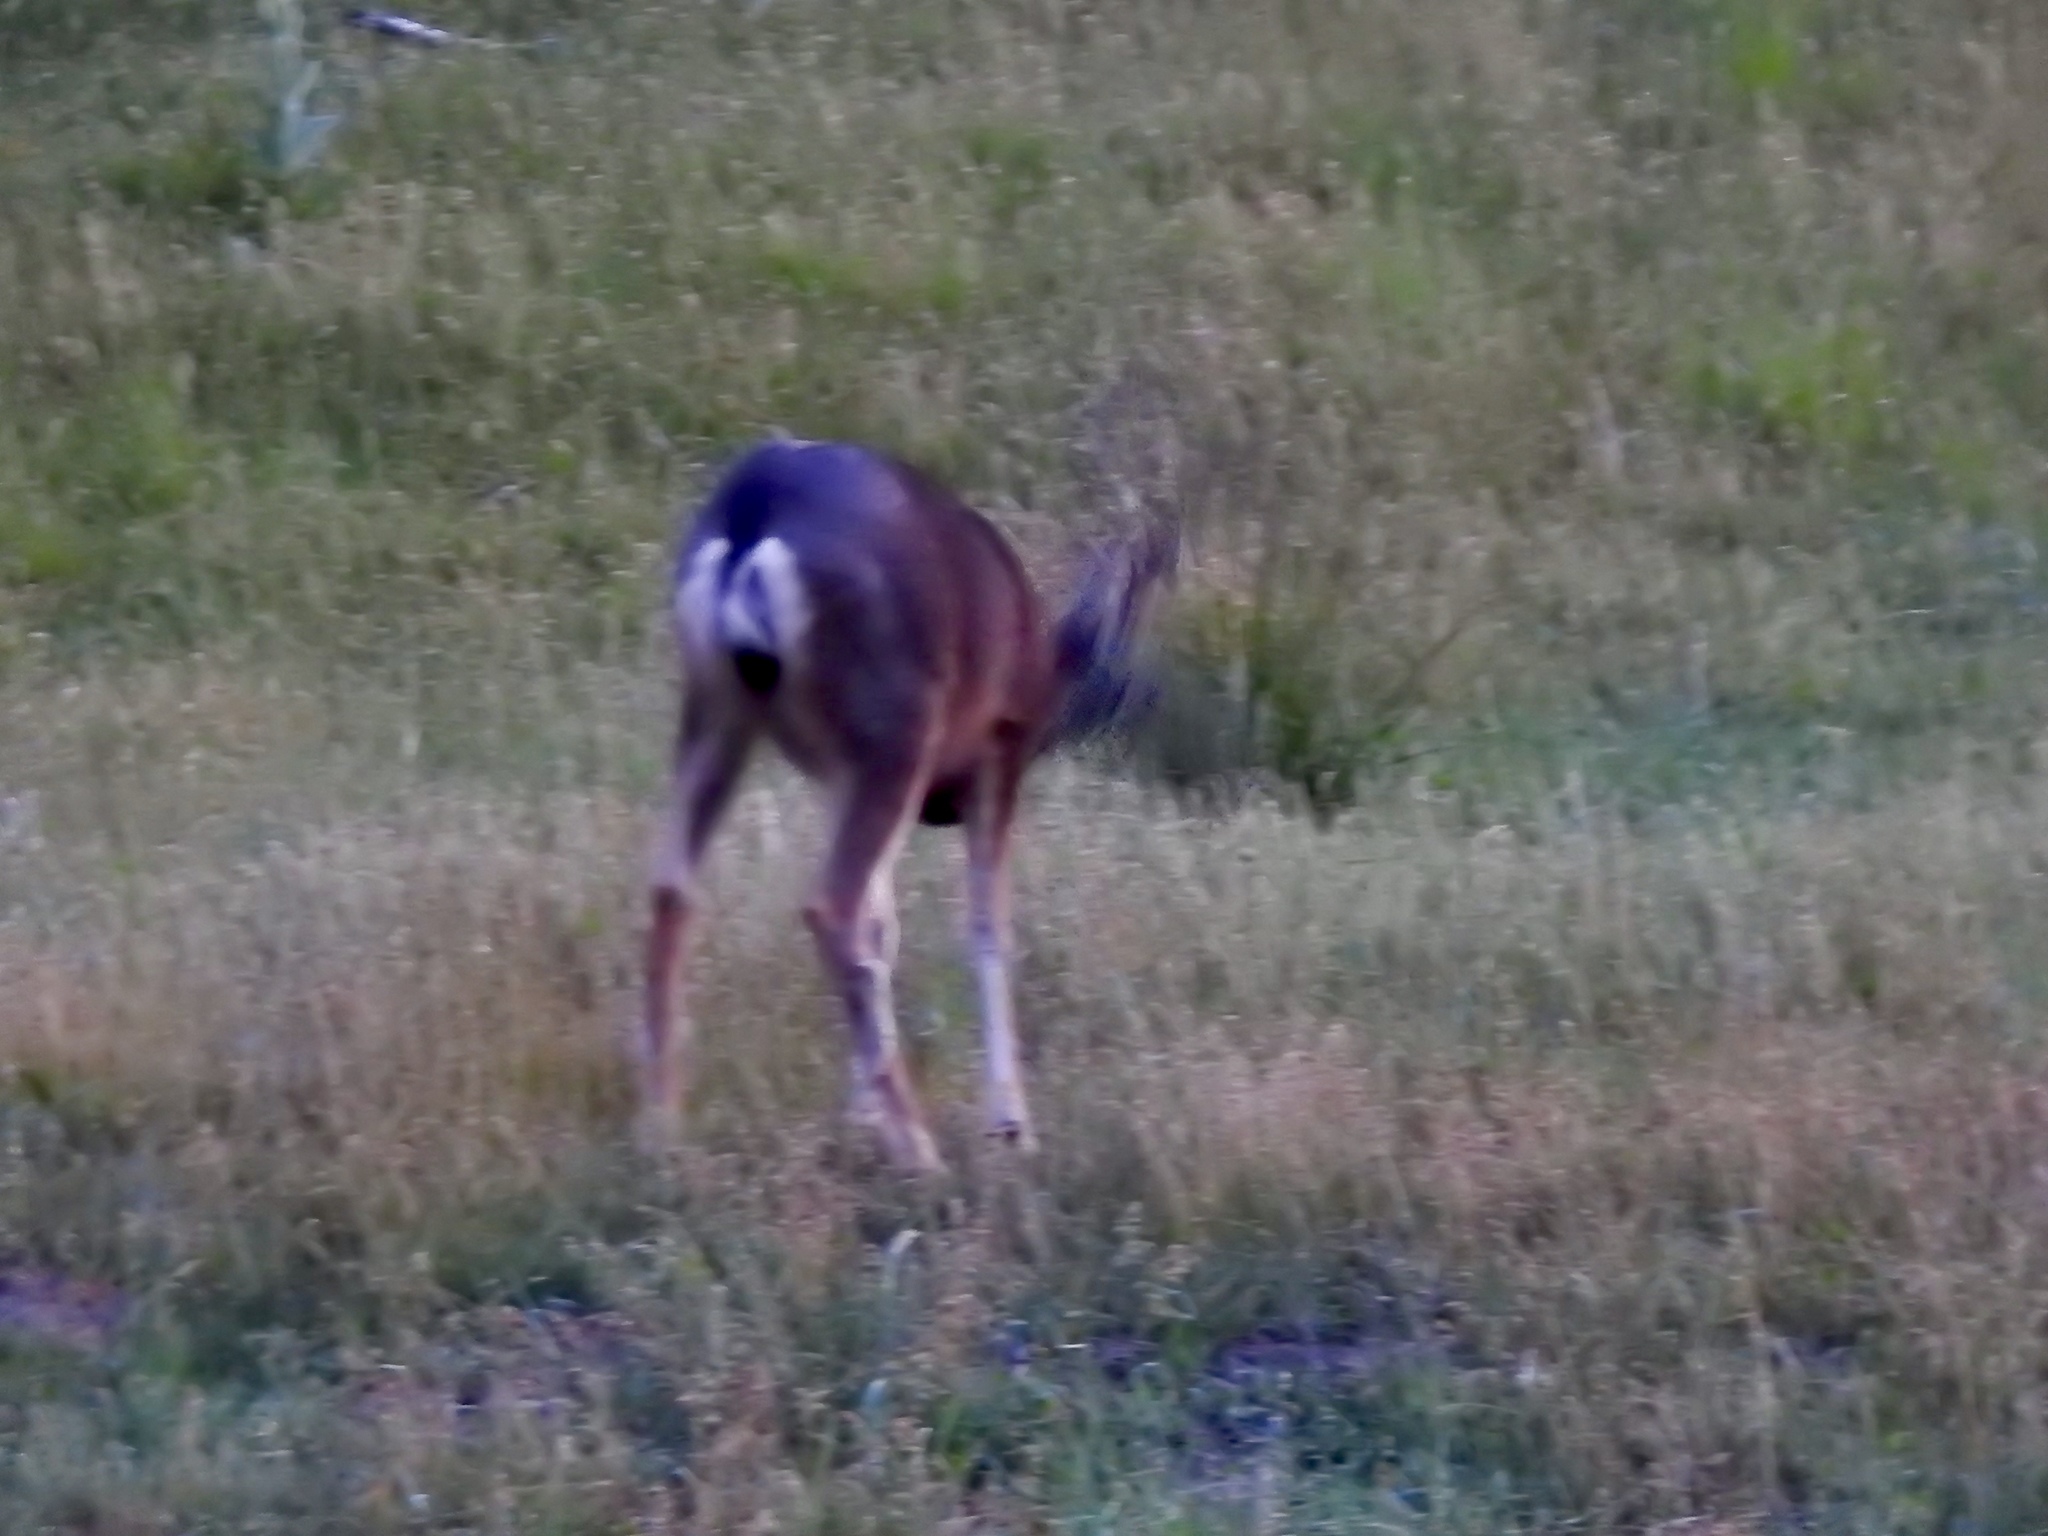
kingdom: Animalia
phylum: Chordata
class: Mammalia
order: Artiodactyla
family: Cervidae
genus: Odocoileus
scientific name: Odocoileus hemionus
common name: Mule deer
